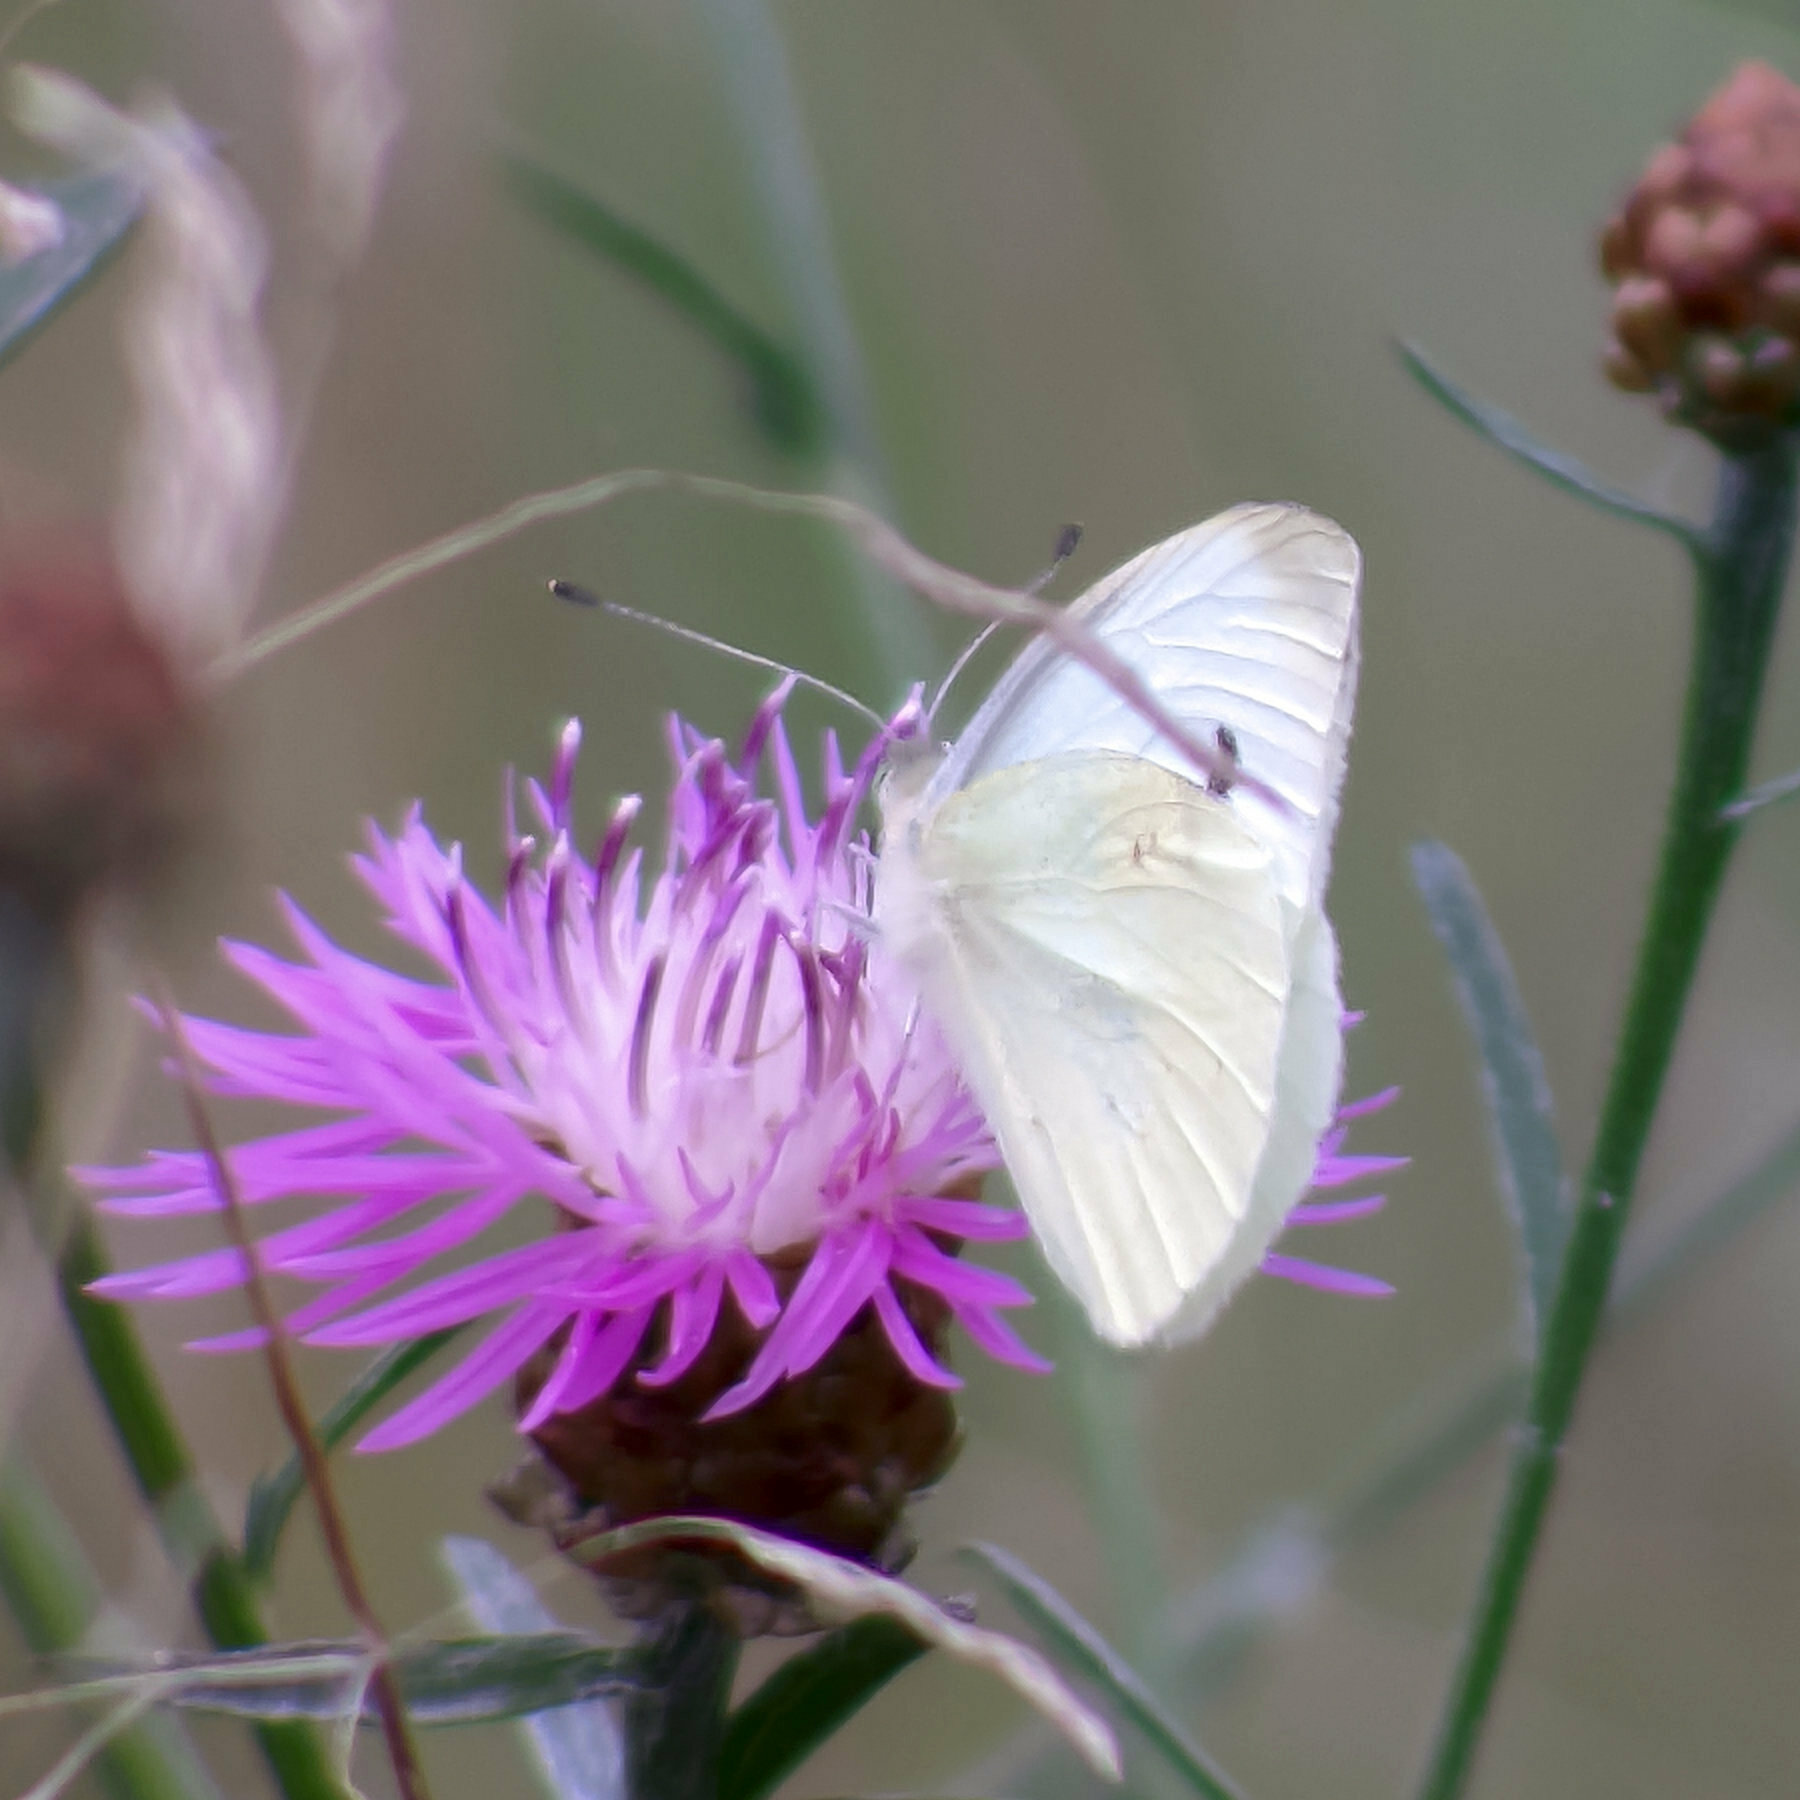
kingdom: Animalia
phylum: Arthropoda
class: Insecta
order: Lepidoptera
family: Pieridae
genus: Pieris
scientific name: Pieris rapae
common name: Small white
